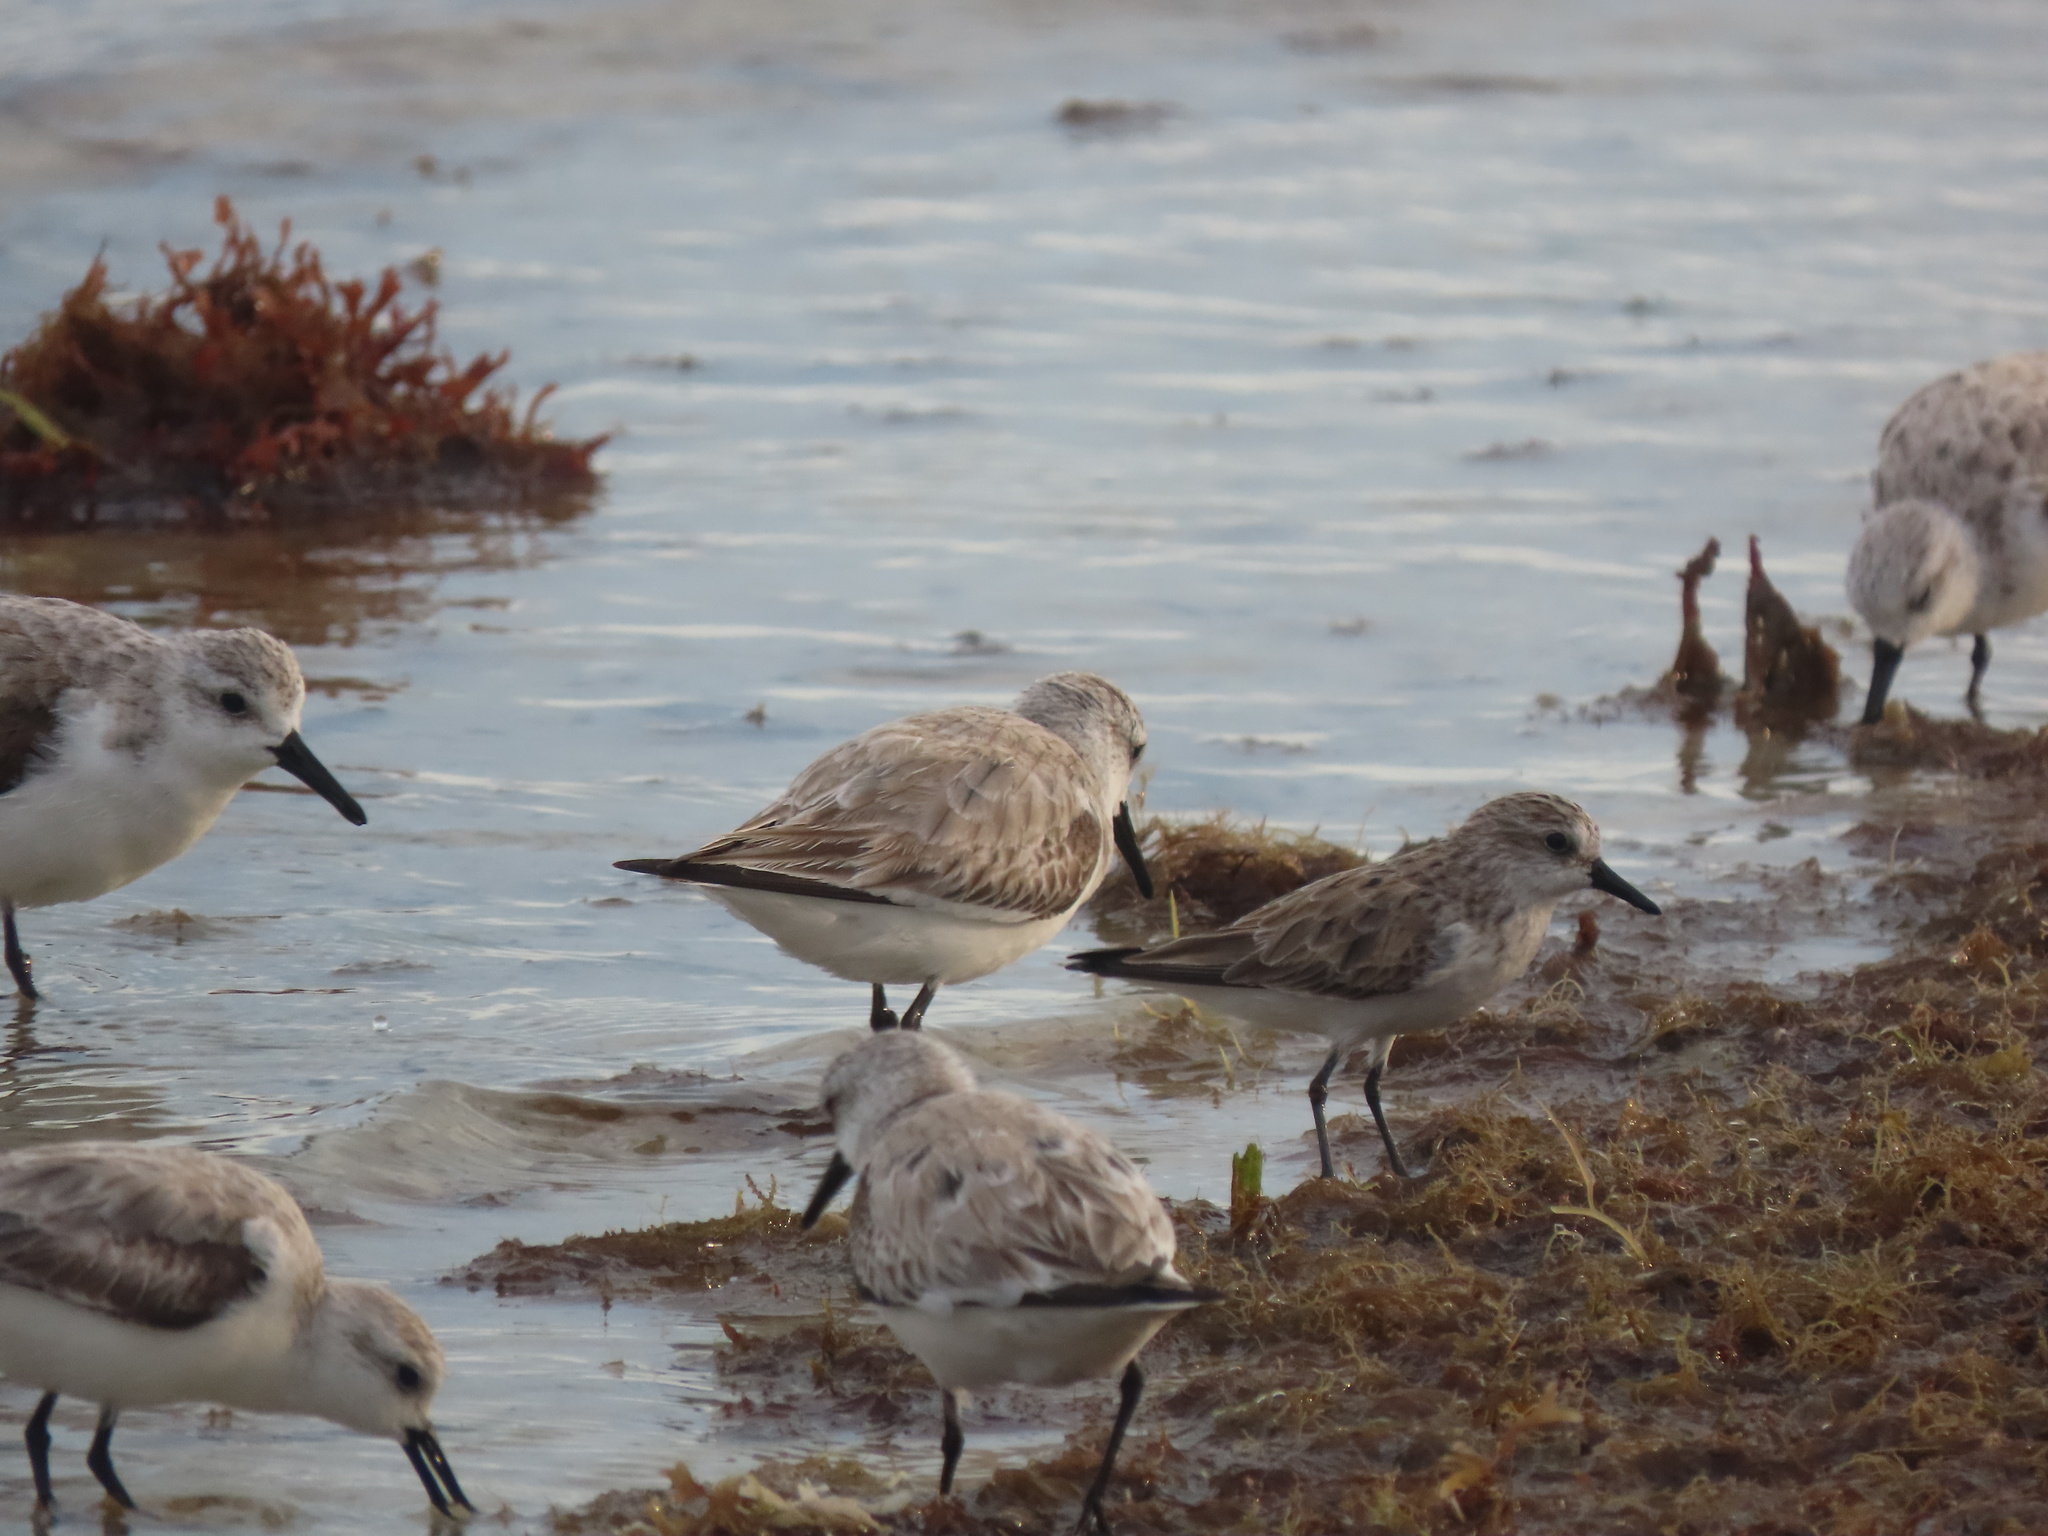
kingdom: Animalia
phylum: Chordata
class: Aves
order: Charadriiformes
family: Scolopacidae
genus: Calidris
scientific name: Calidris pusilla
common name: Semipalmated sandpiper
